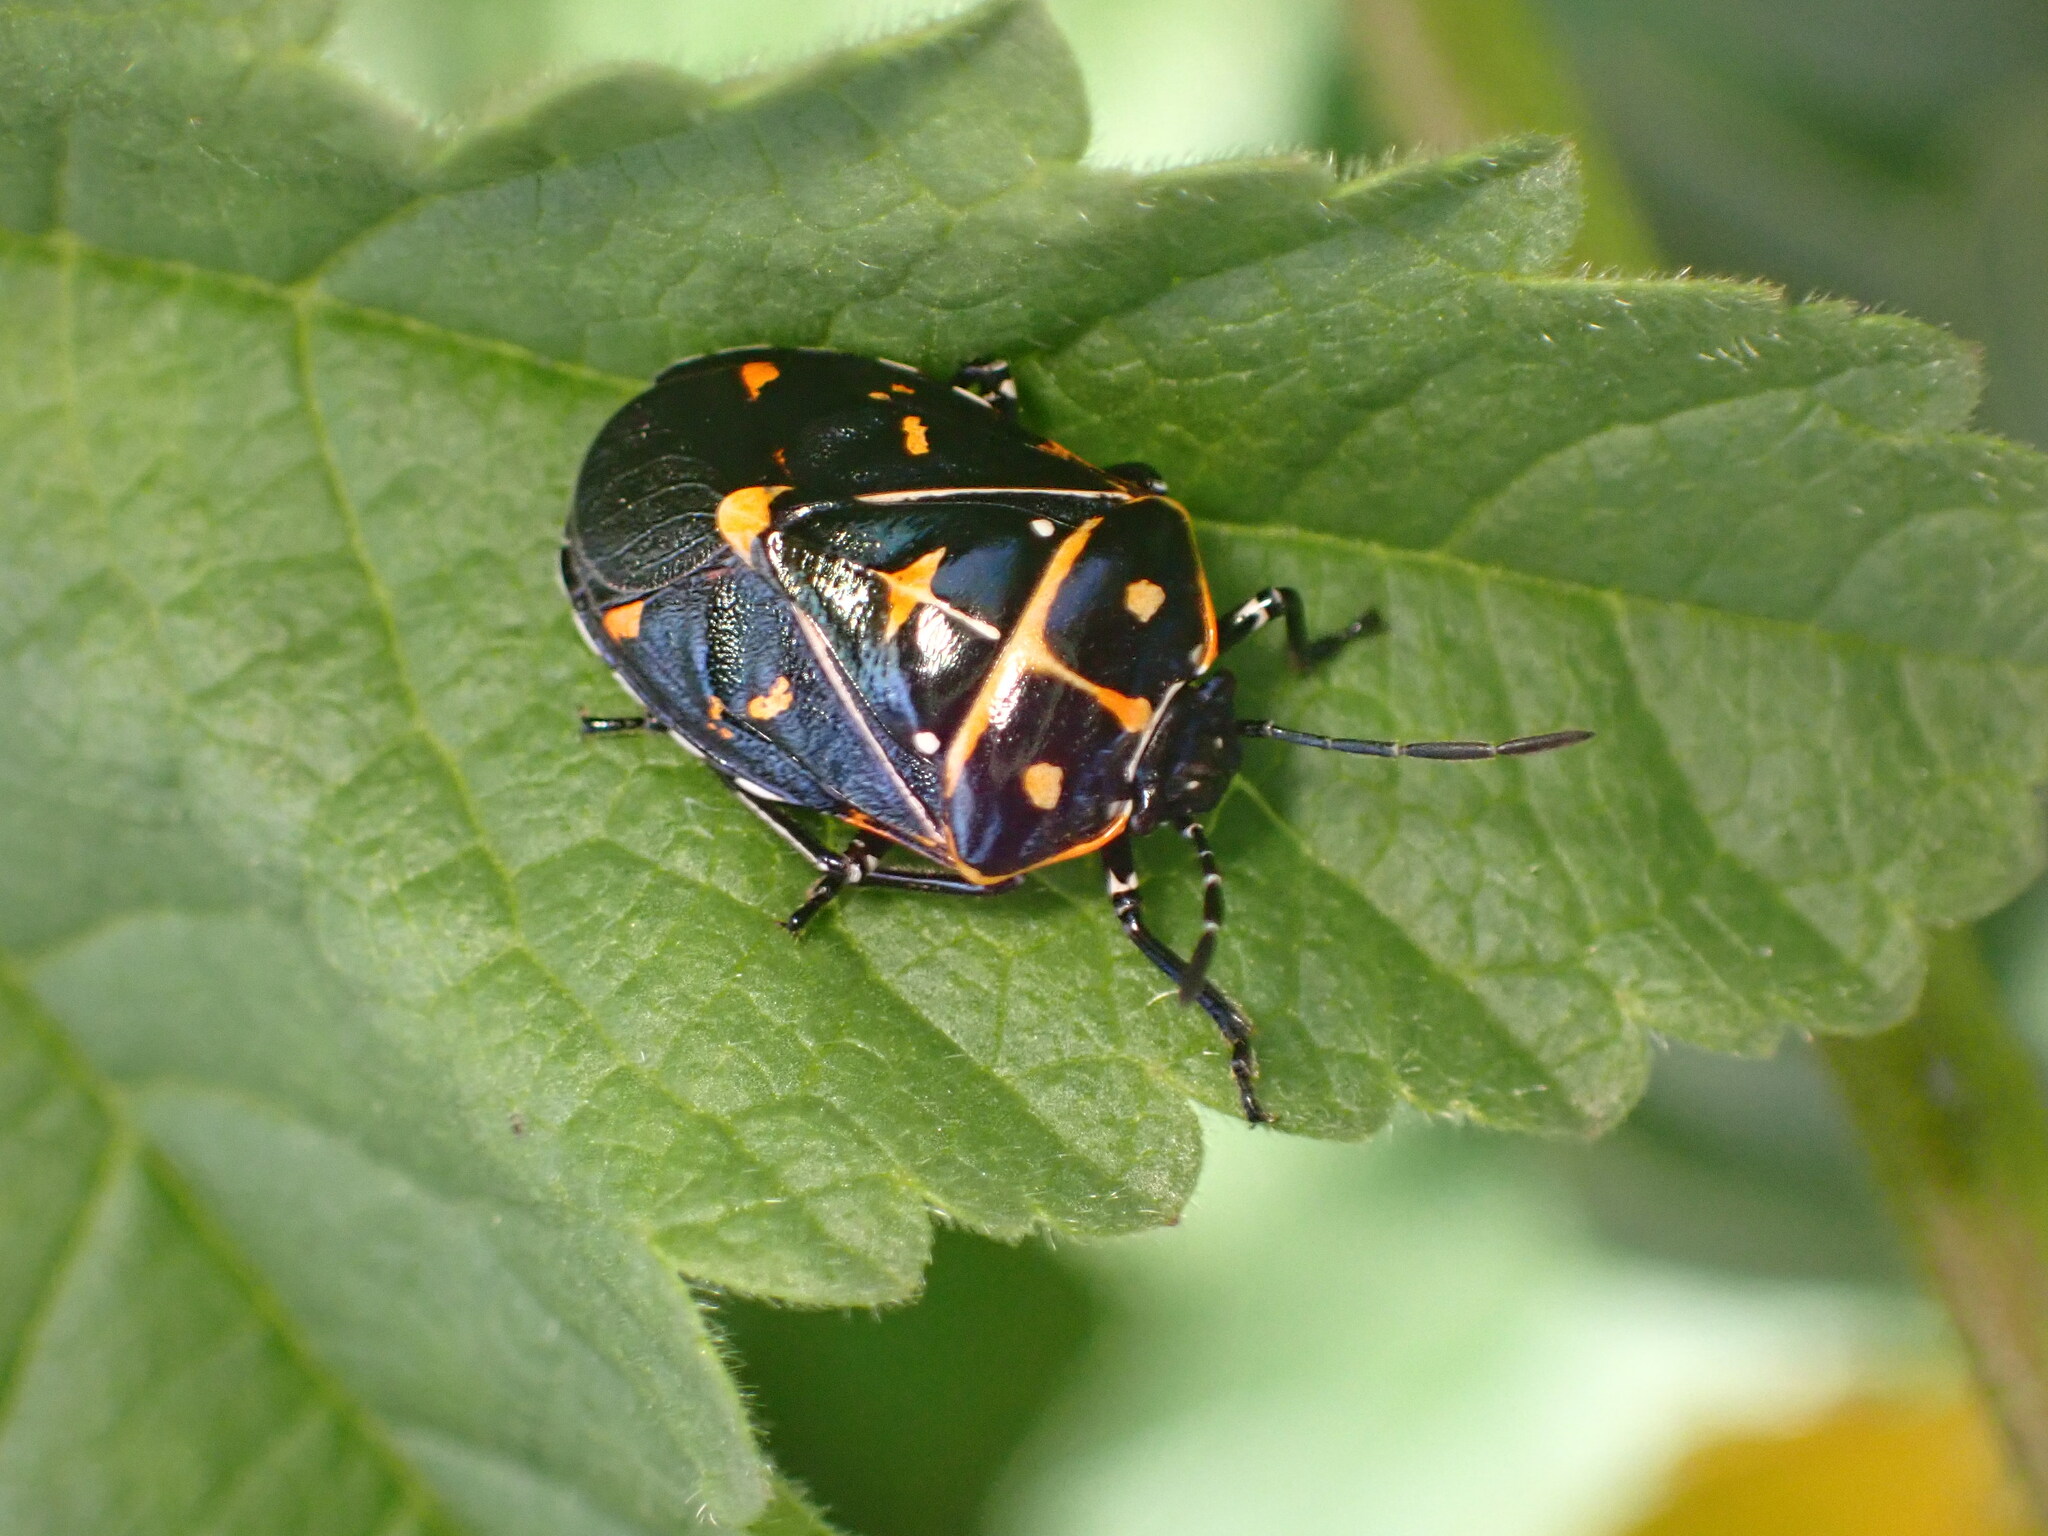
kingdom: Animalia
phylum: Arthropoda
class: Insecta
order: Hemiptera
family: Pentatomidae
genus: Murgantia
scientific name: Murgantia histrionica
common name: Harlequin bug
